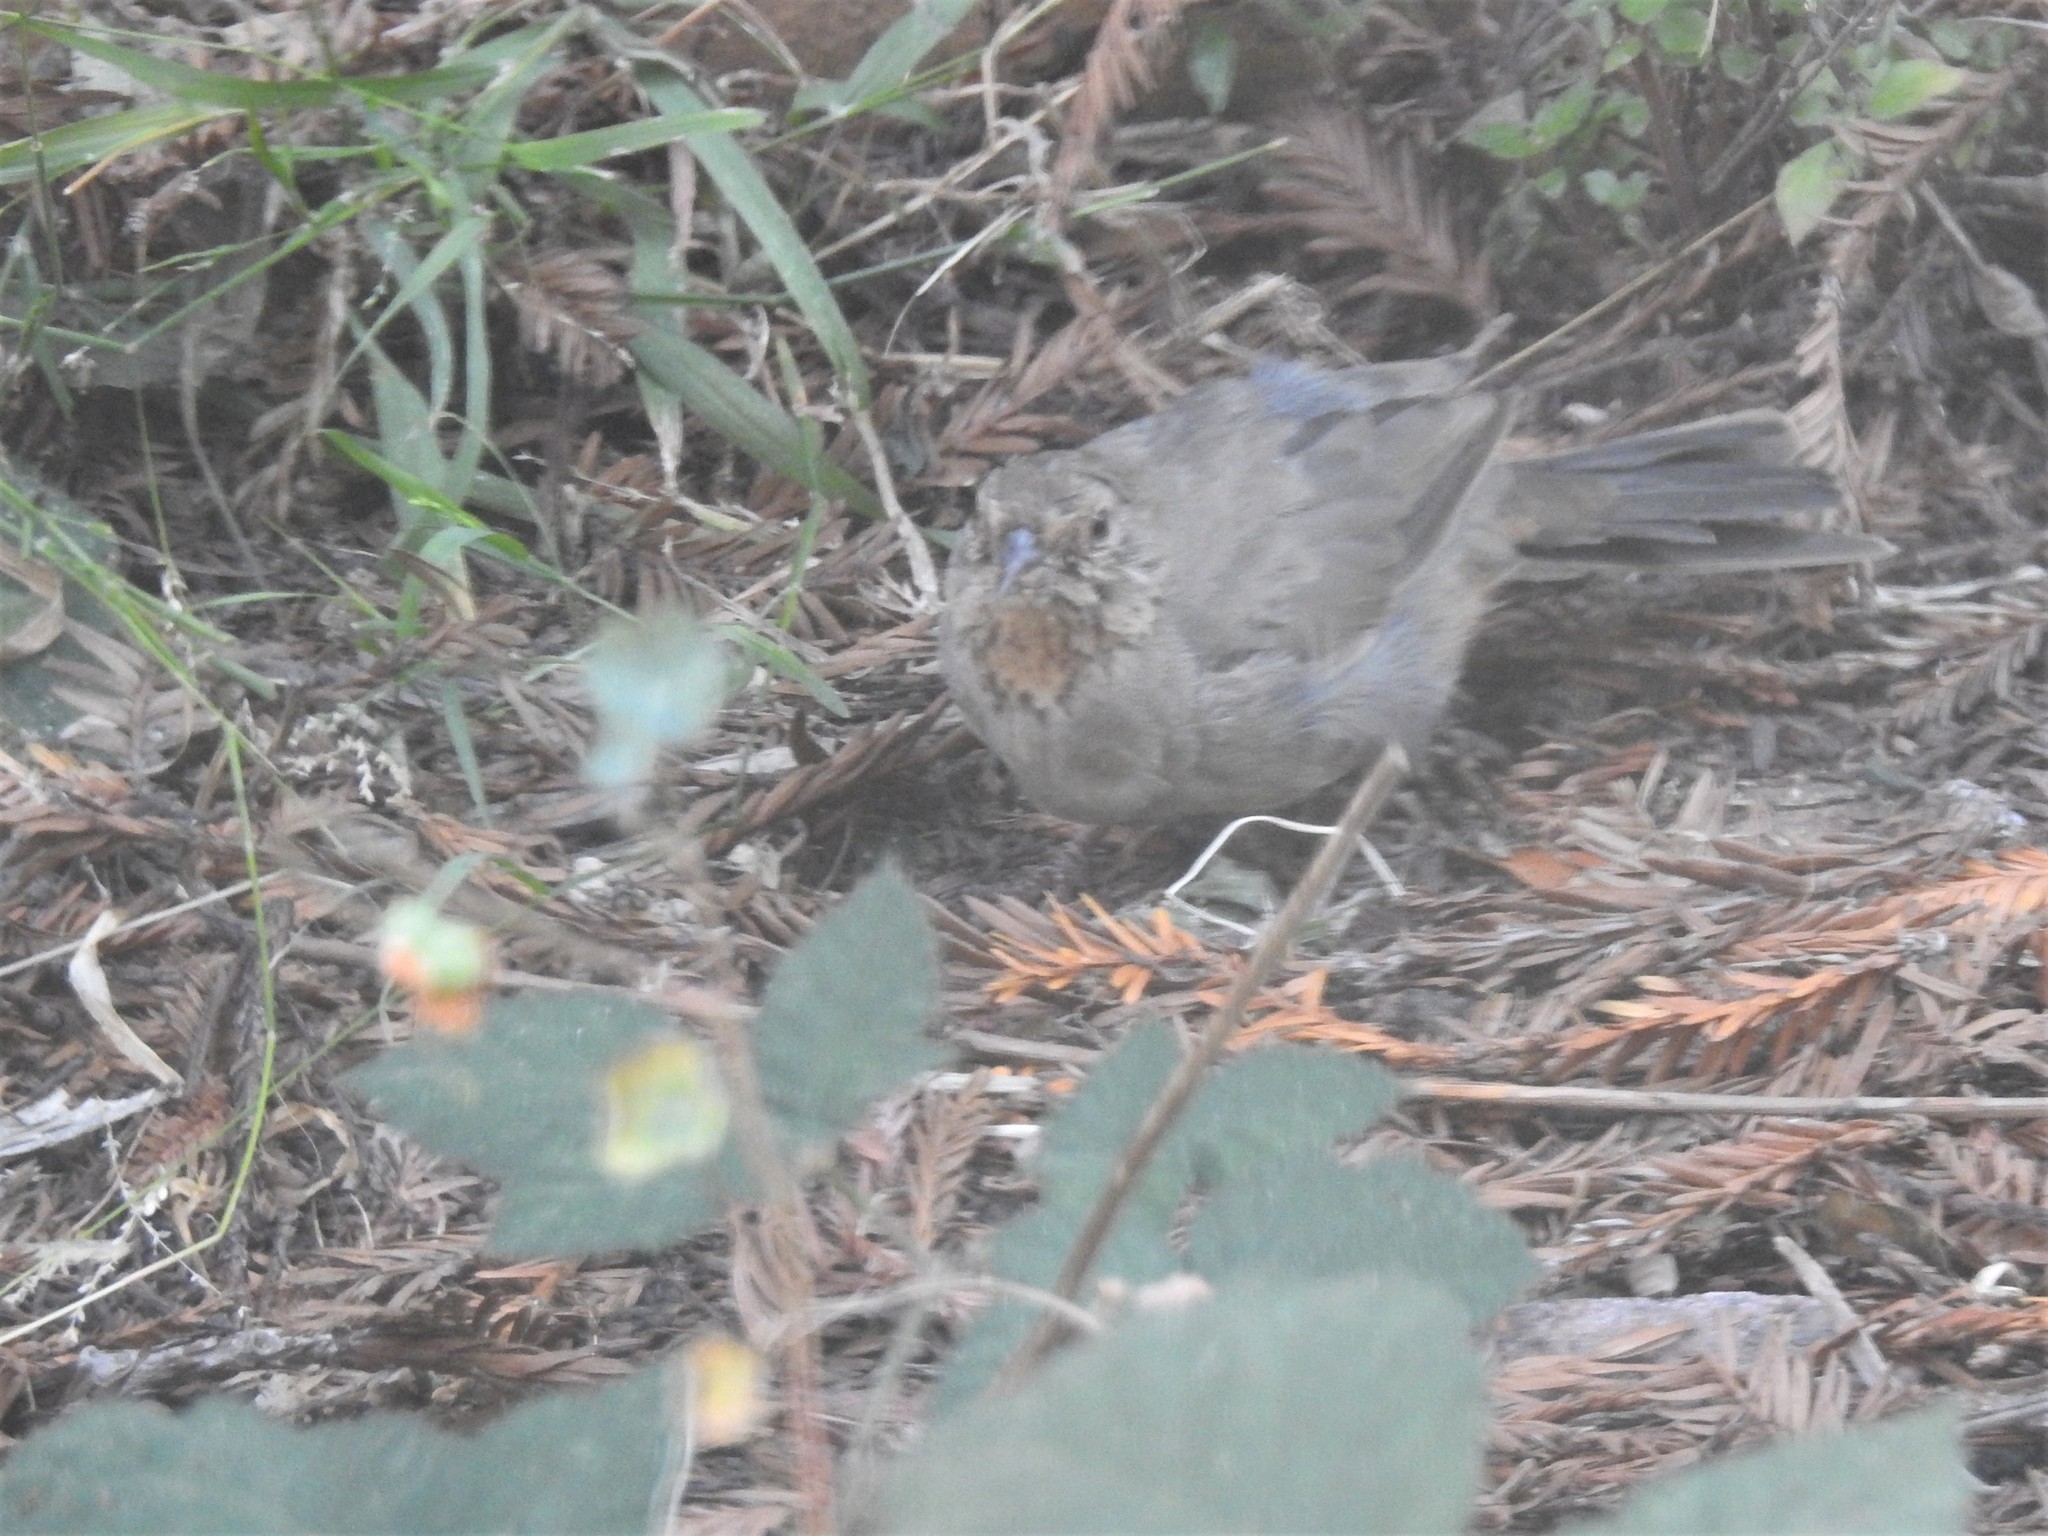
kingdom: Animalia
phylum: Chordata
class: Aves
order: Passeriformes
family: Passerellidae
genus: Melozone
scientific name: Melozone crissalis
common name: California towhee
